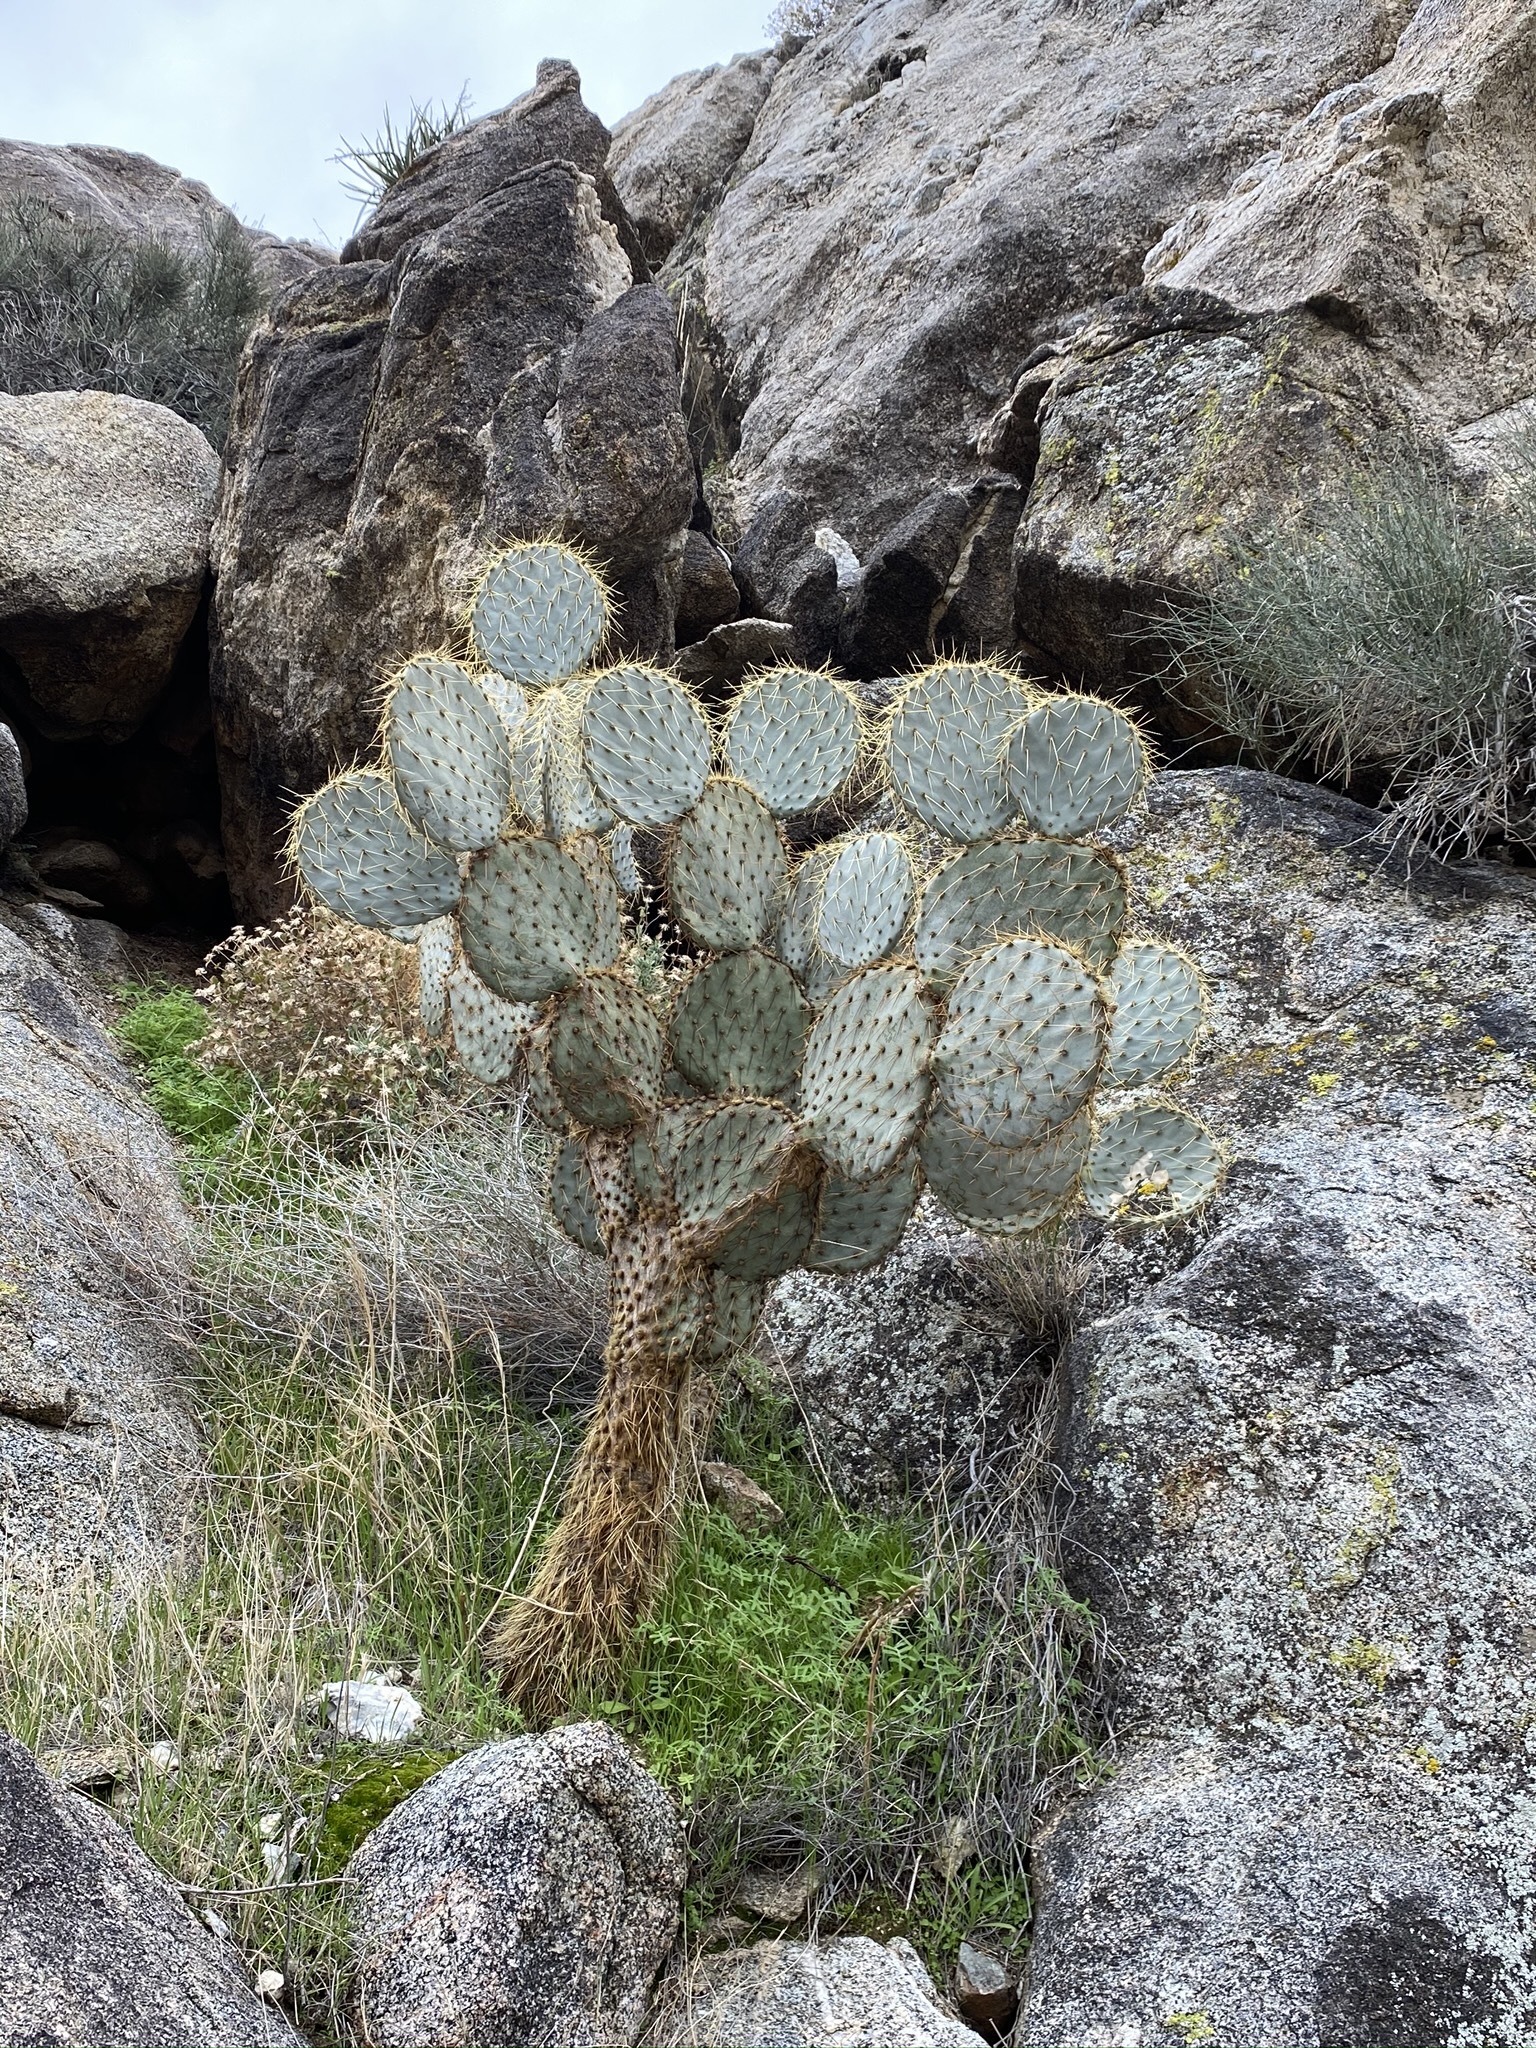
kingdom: Plantae
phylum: Tracheophyta
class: Magnoliopsida
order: Caryophyllales
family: Cactaceae
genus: Opuntia
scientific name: Opuntia chlorotica
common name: Dollar-joint prickly-pear
